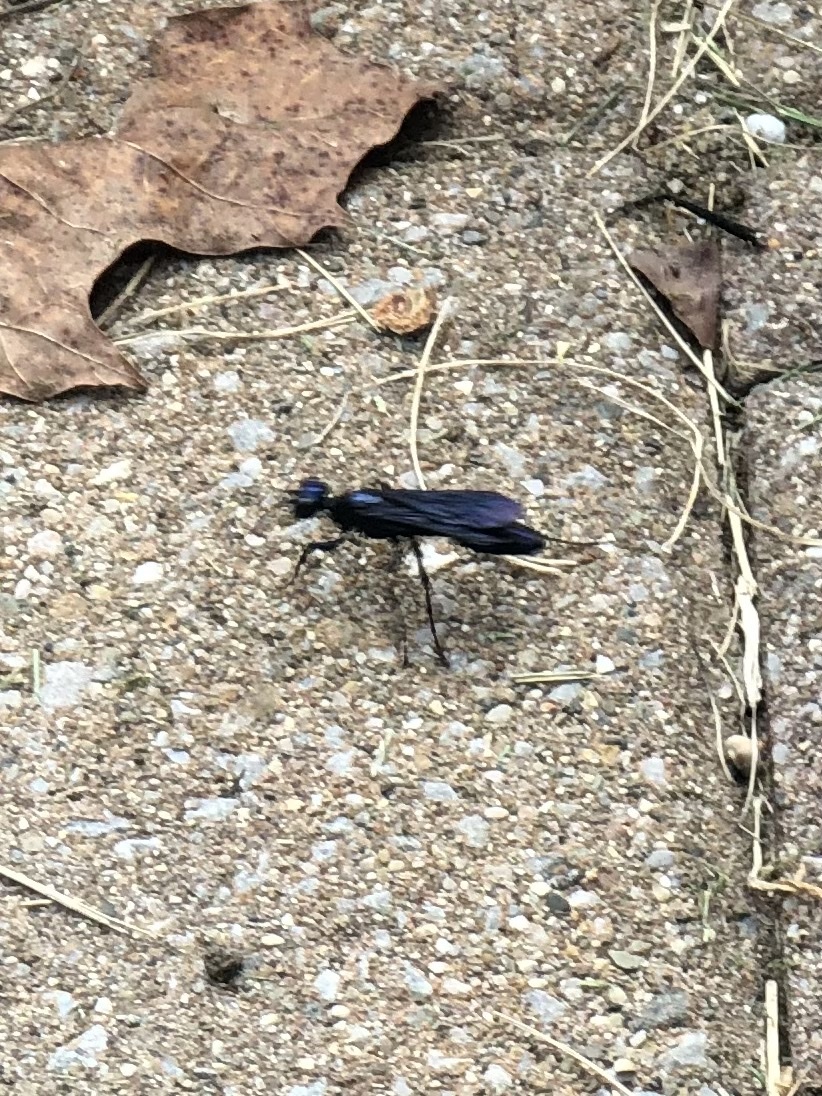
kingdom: Animalia
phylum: Arthropoda
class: Insecta
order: Hymenoptera
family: Sphecidae
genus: Chlorion
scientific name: Chlorion aerarium
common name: Steel-blue cricket hunter
